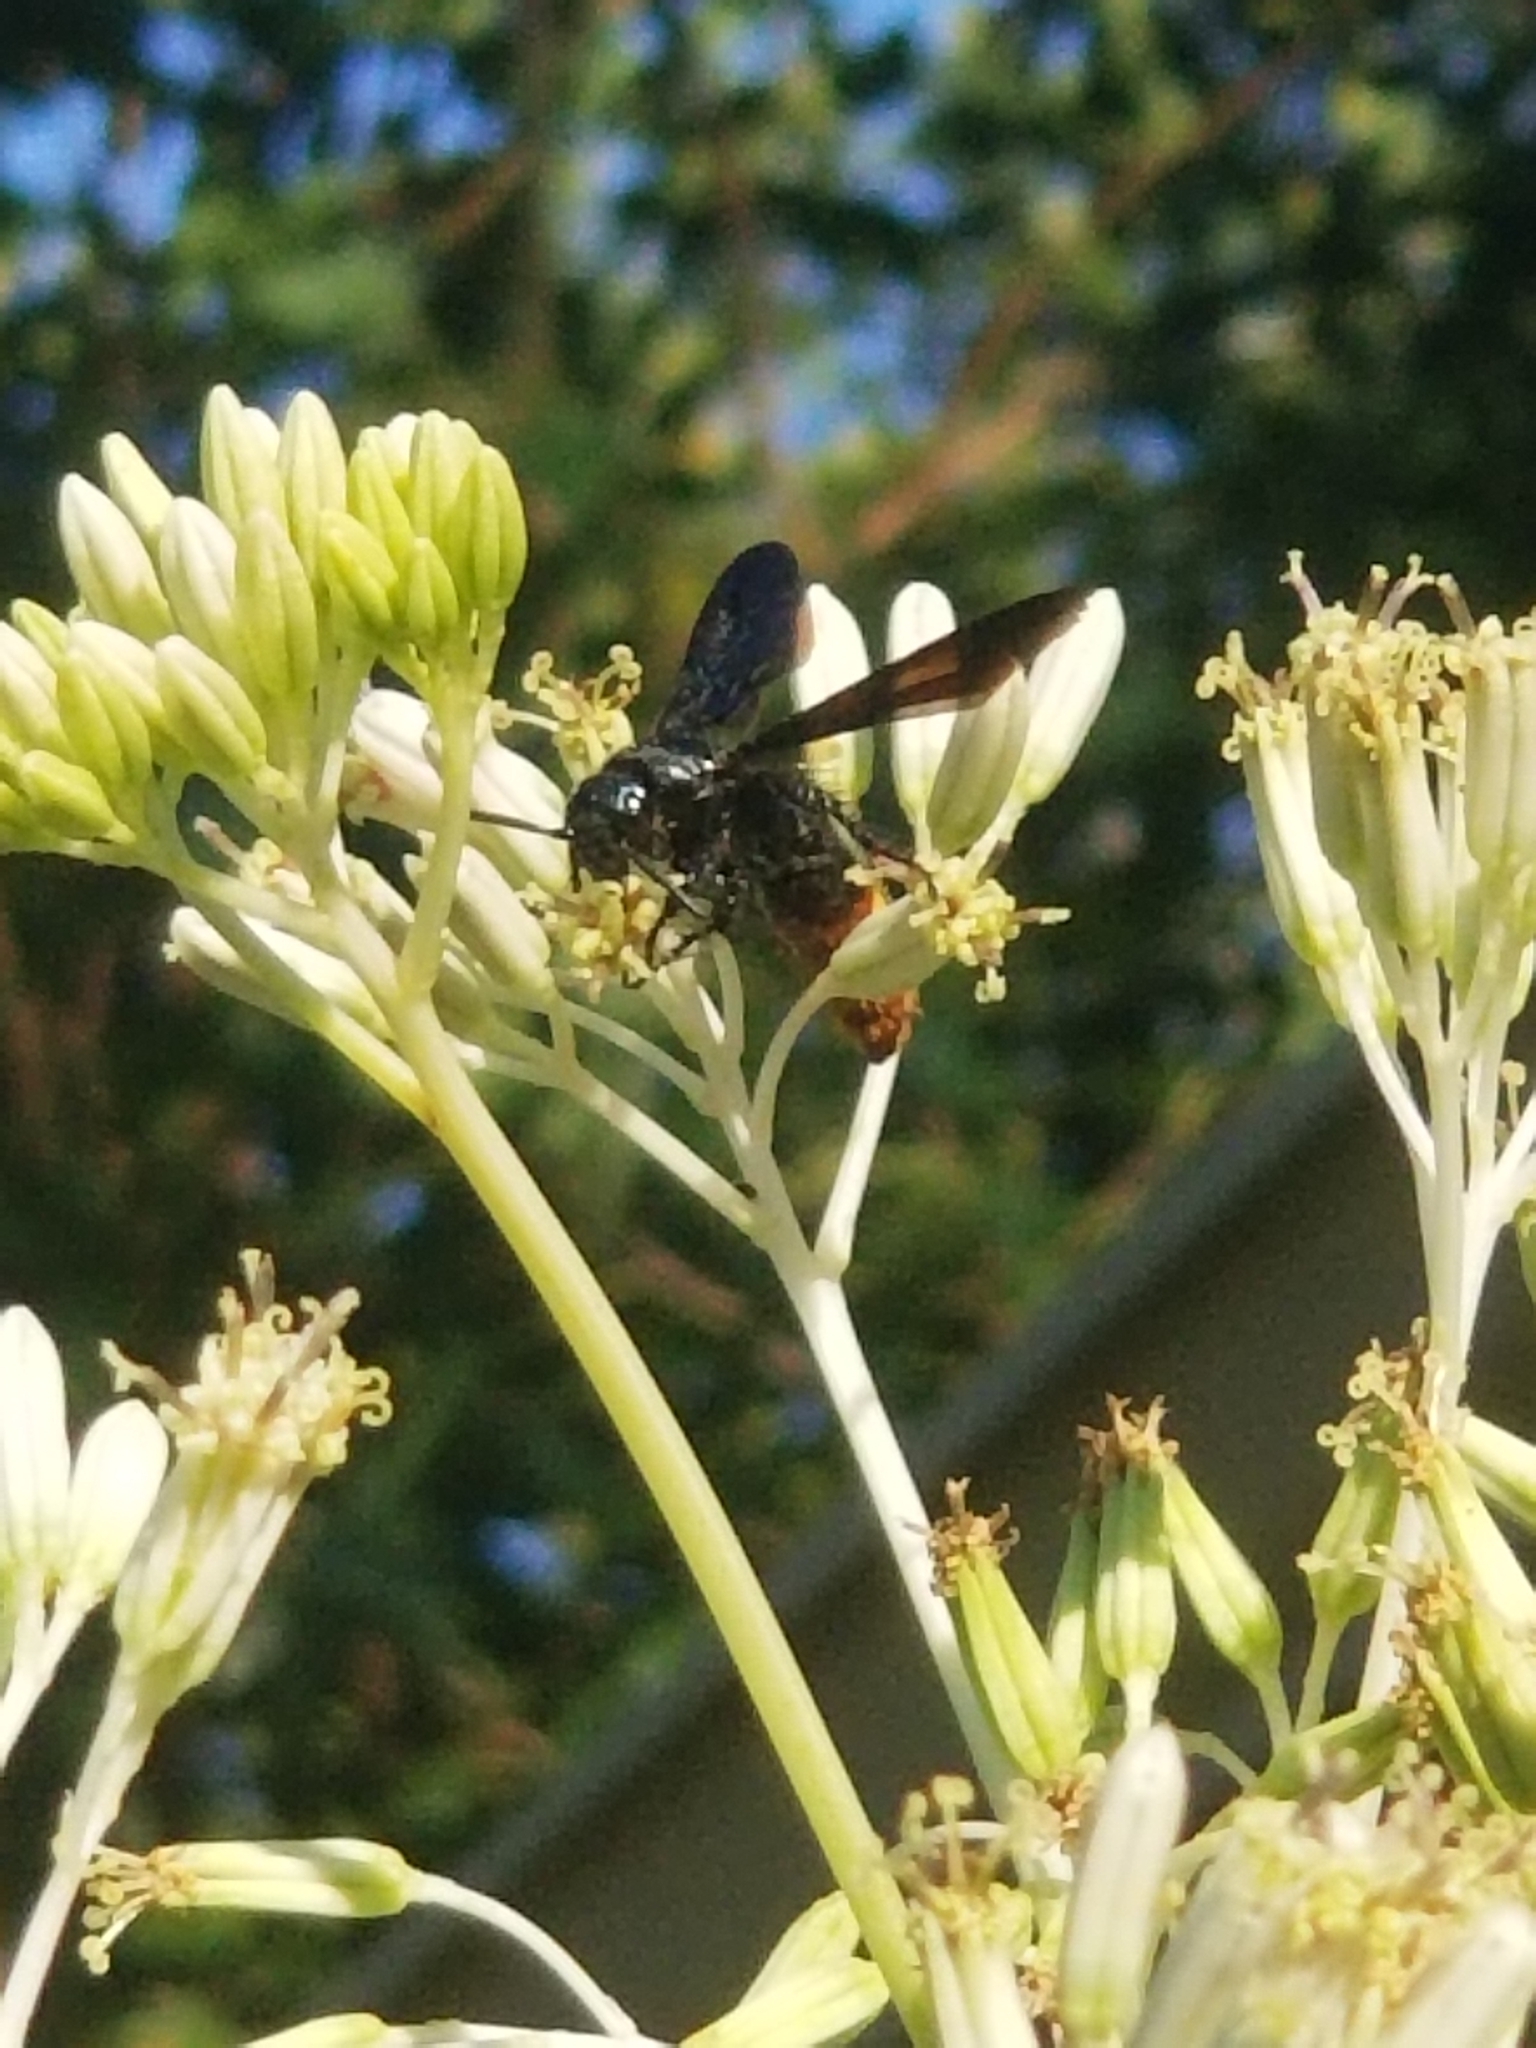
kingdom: Animalia
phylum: Arthropoda
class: Insecta
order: Hymenoptera
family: Scoliidae
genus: Scolia
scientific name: Scolia dubia
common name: Blue-winged scoliid wasp
